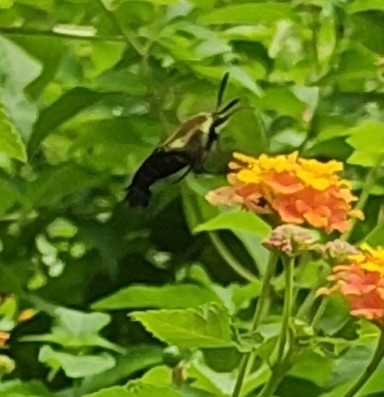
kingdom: Animalia
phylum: Arthropoda
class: Insecta
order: Lepidoptera
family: Sphingidae
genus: Hemaris
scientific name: Hemaris diffinis
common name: Bumblebee moth
